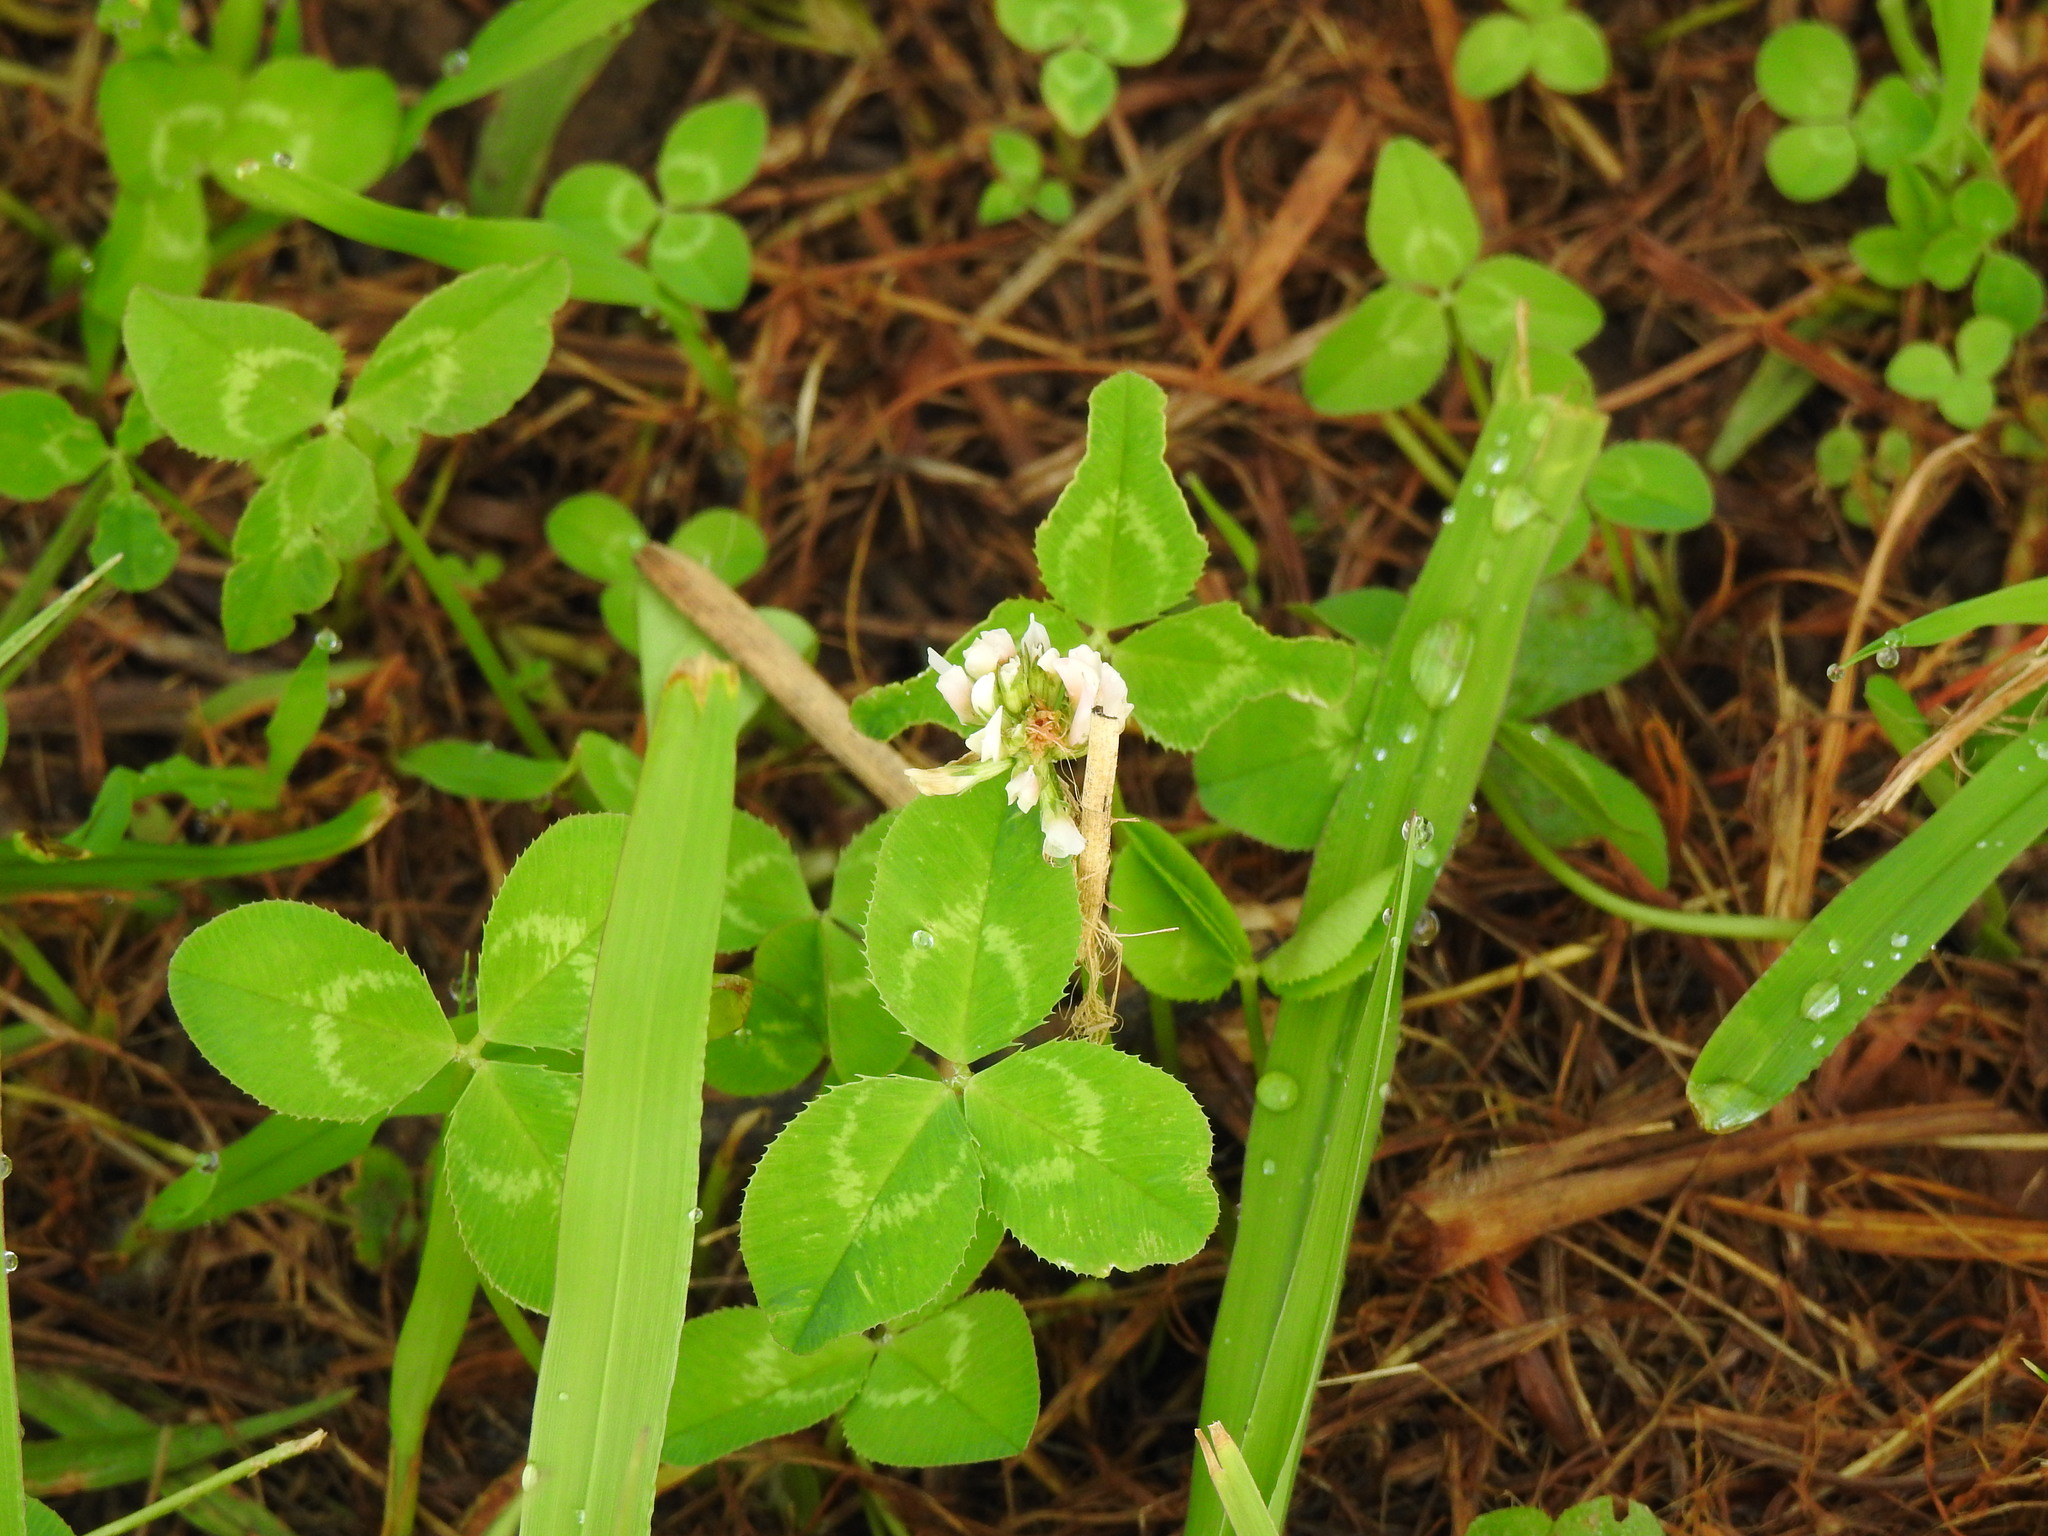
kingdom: Plantae
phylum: Tracheophyta
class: Magnoliopsida
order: Fabales
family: Fabaceae
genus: Trifolium
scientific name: Trifolium repens
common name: White clover
